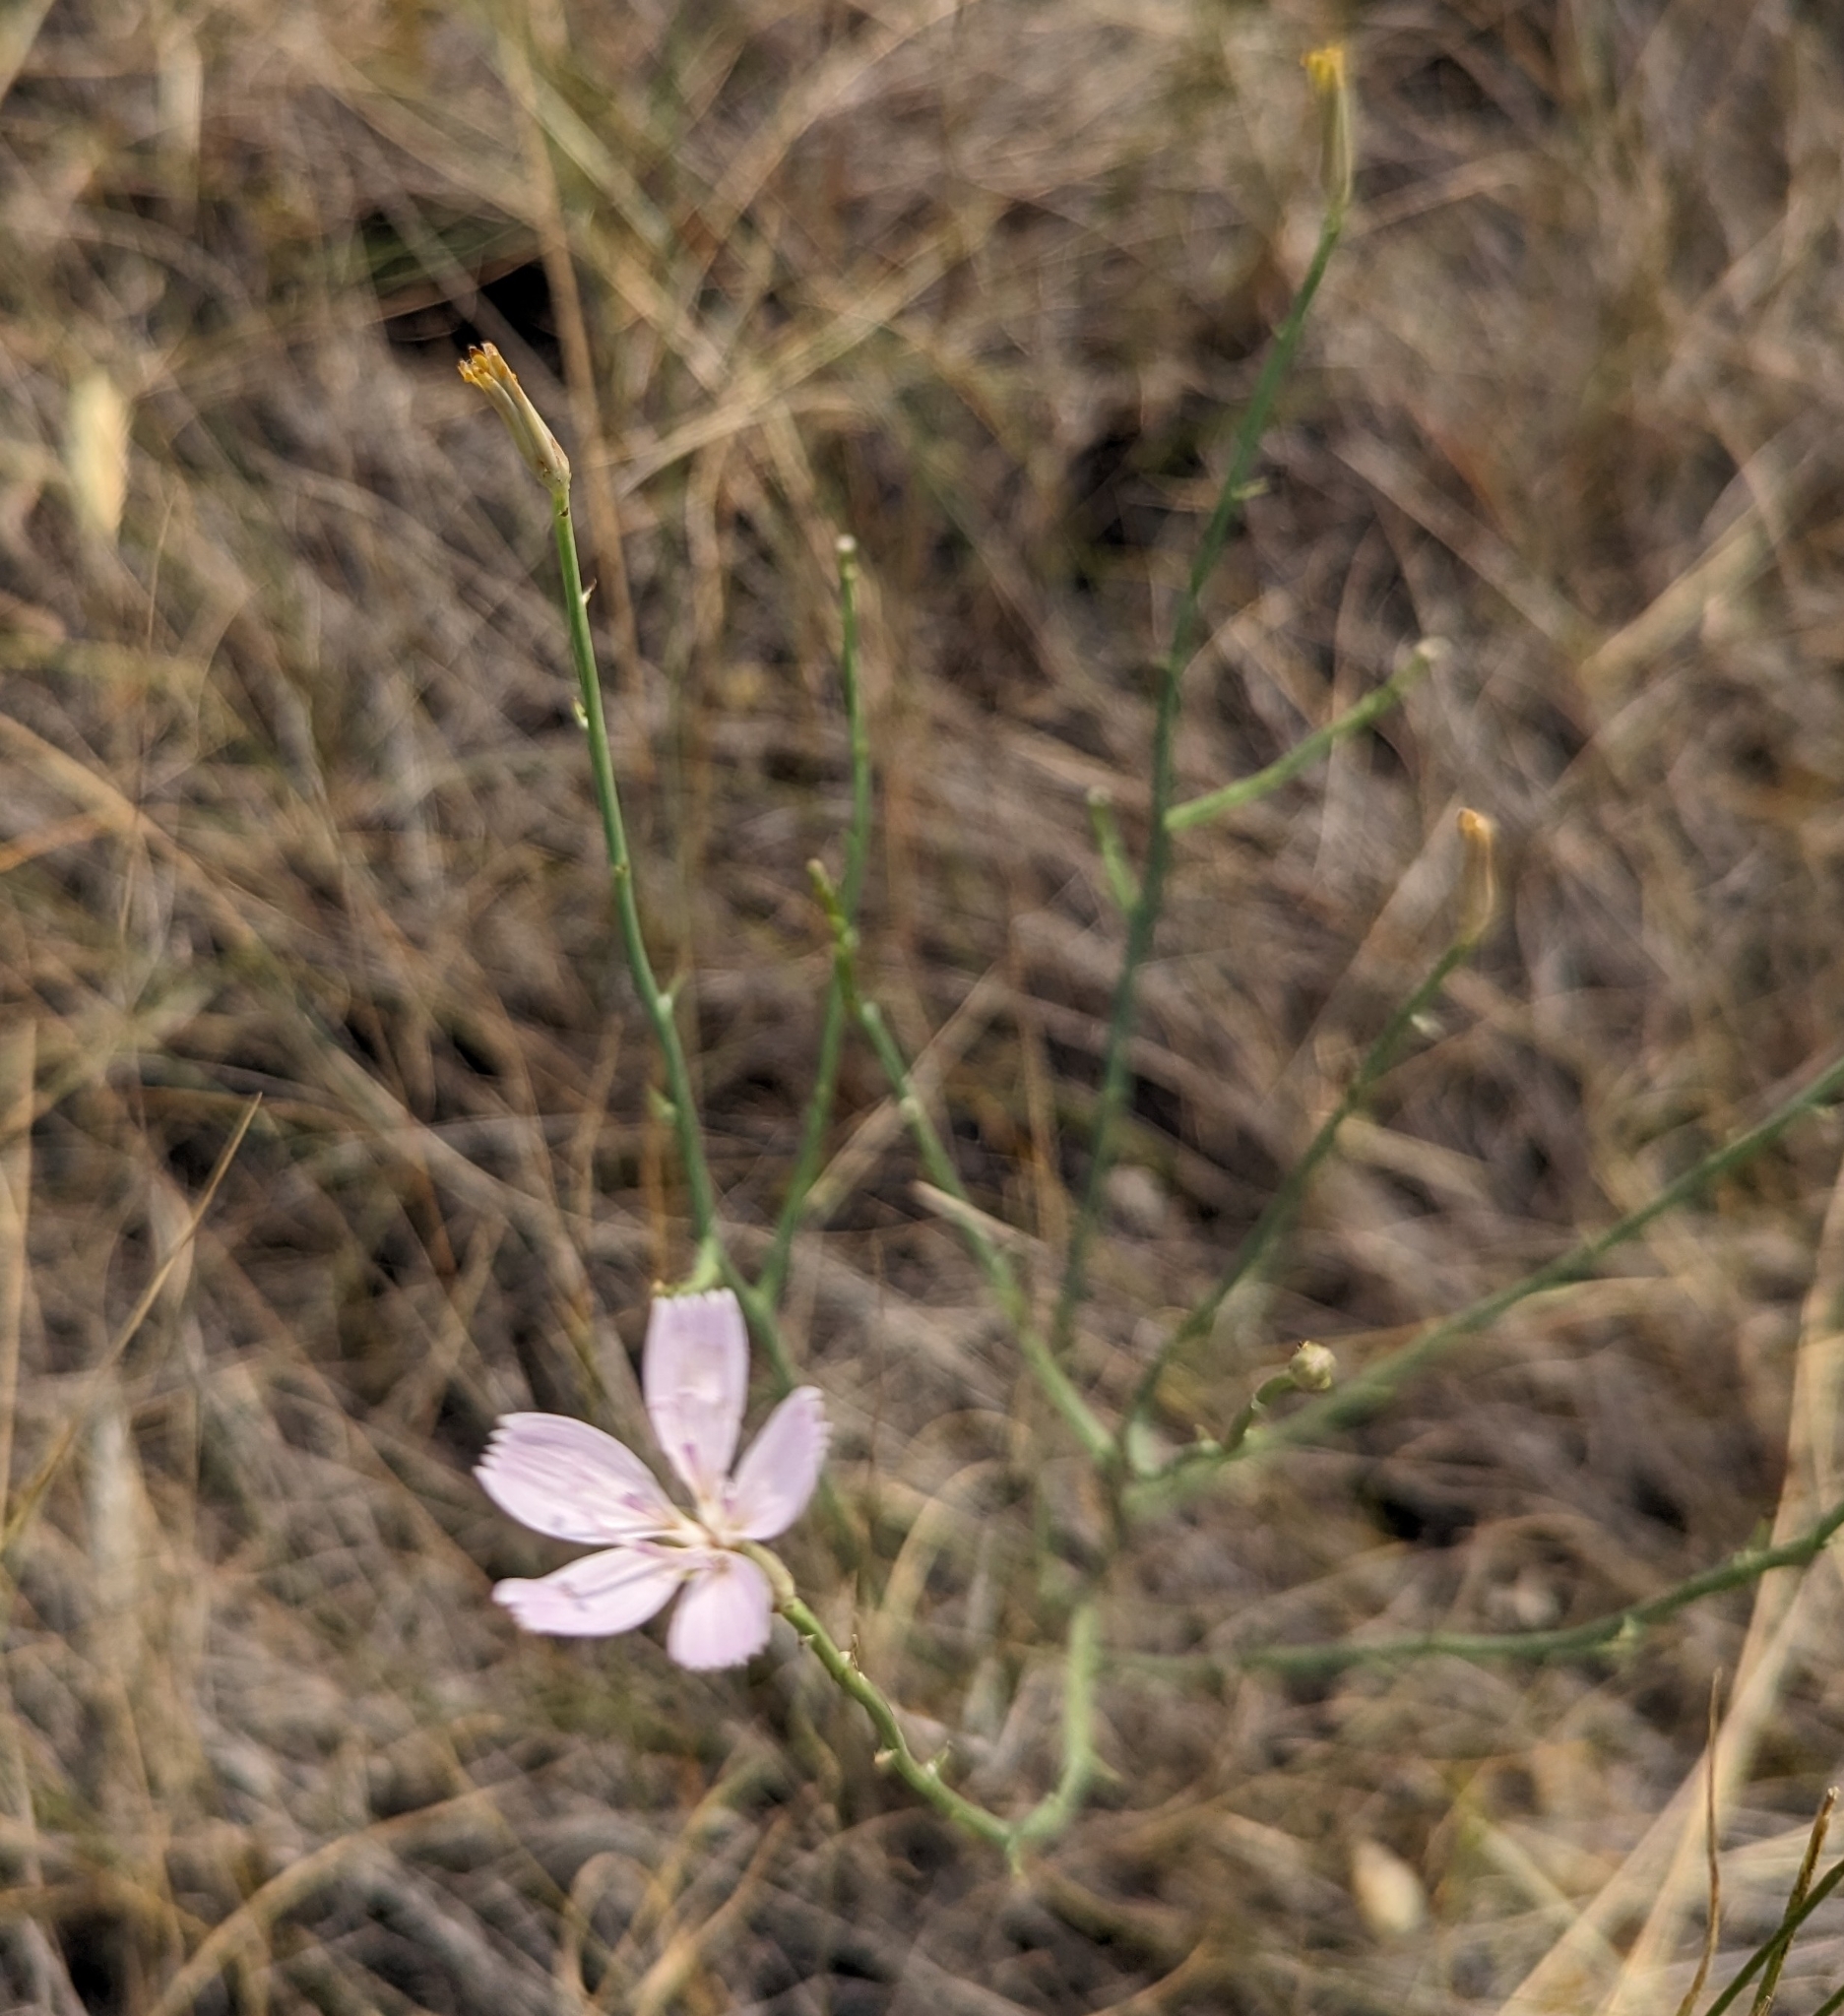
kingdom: Plantae
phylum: Tracheophyta
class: Magnoliopsida
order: Asterales
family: Asteraceae
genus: Lygodesmia
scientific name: Lygodesmia juncea
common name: Common skeletonweed
